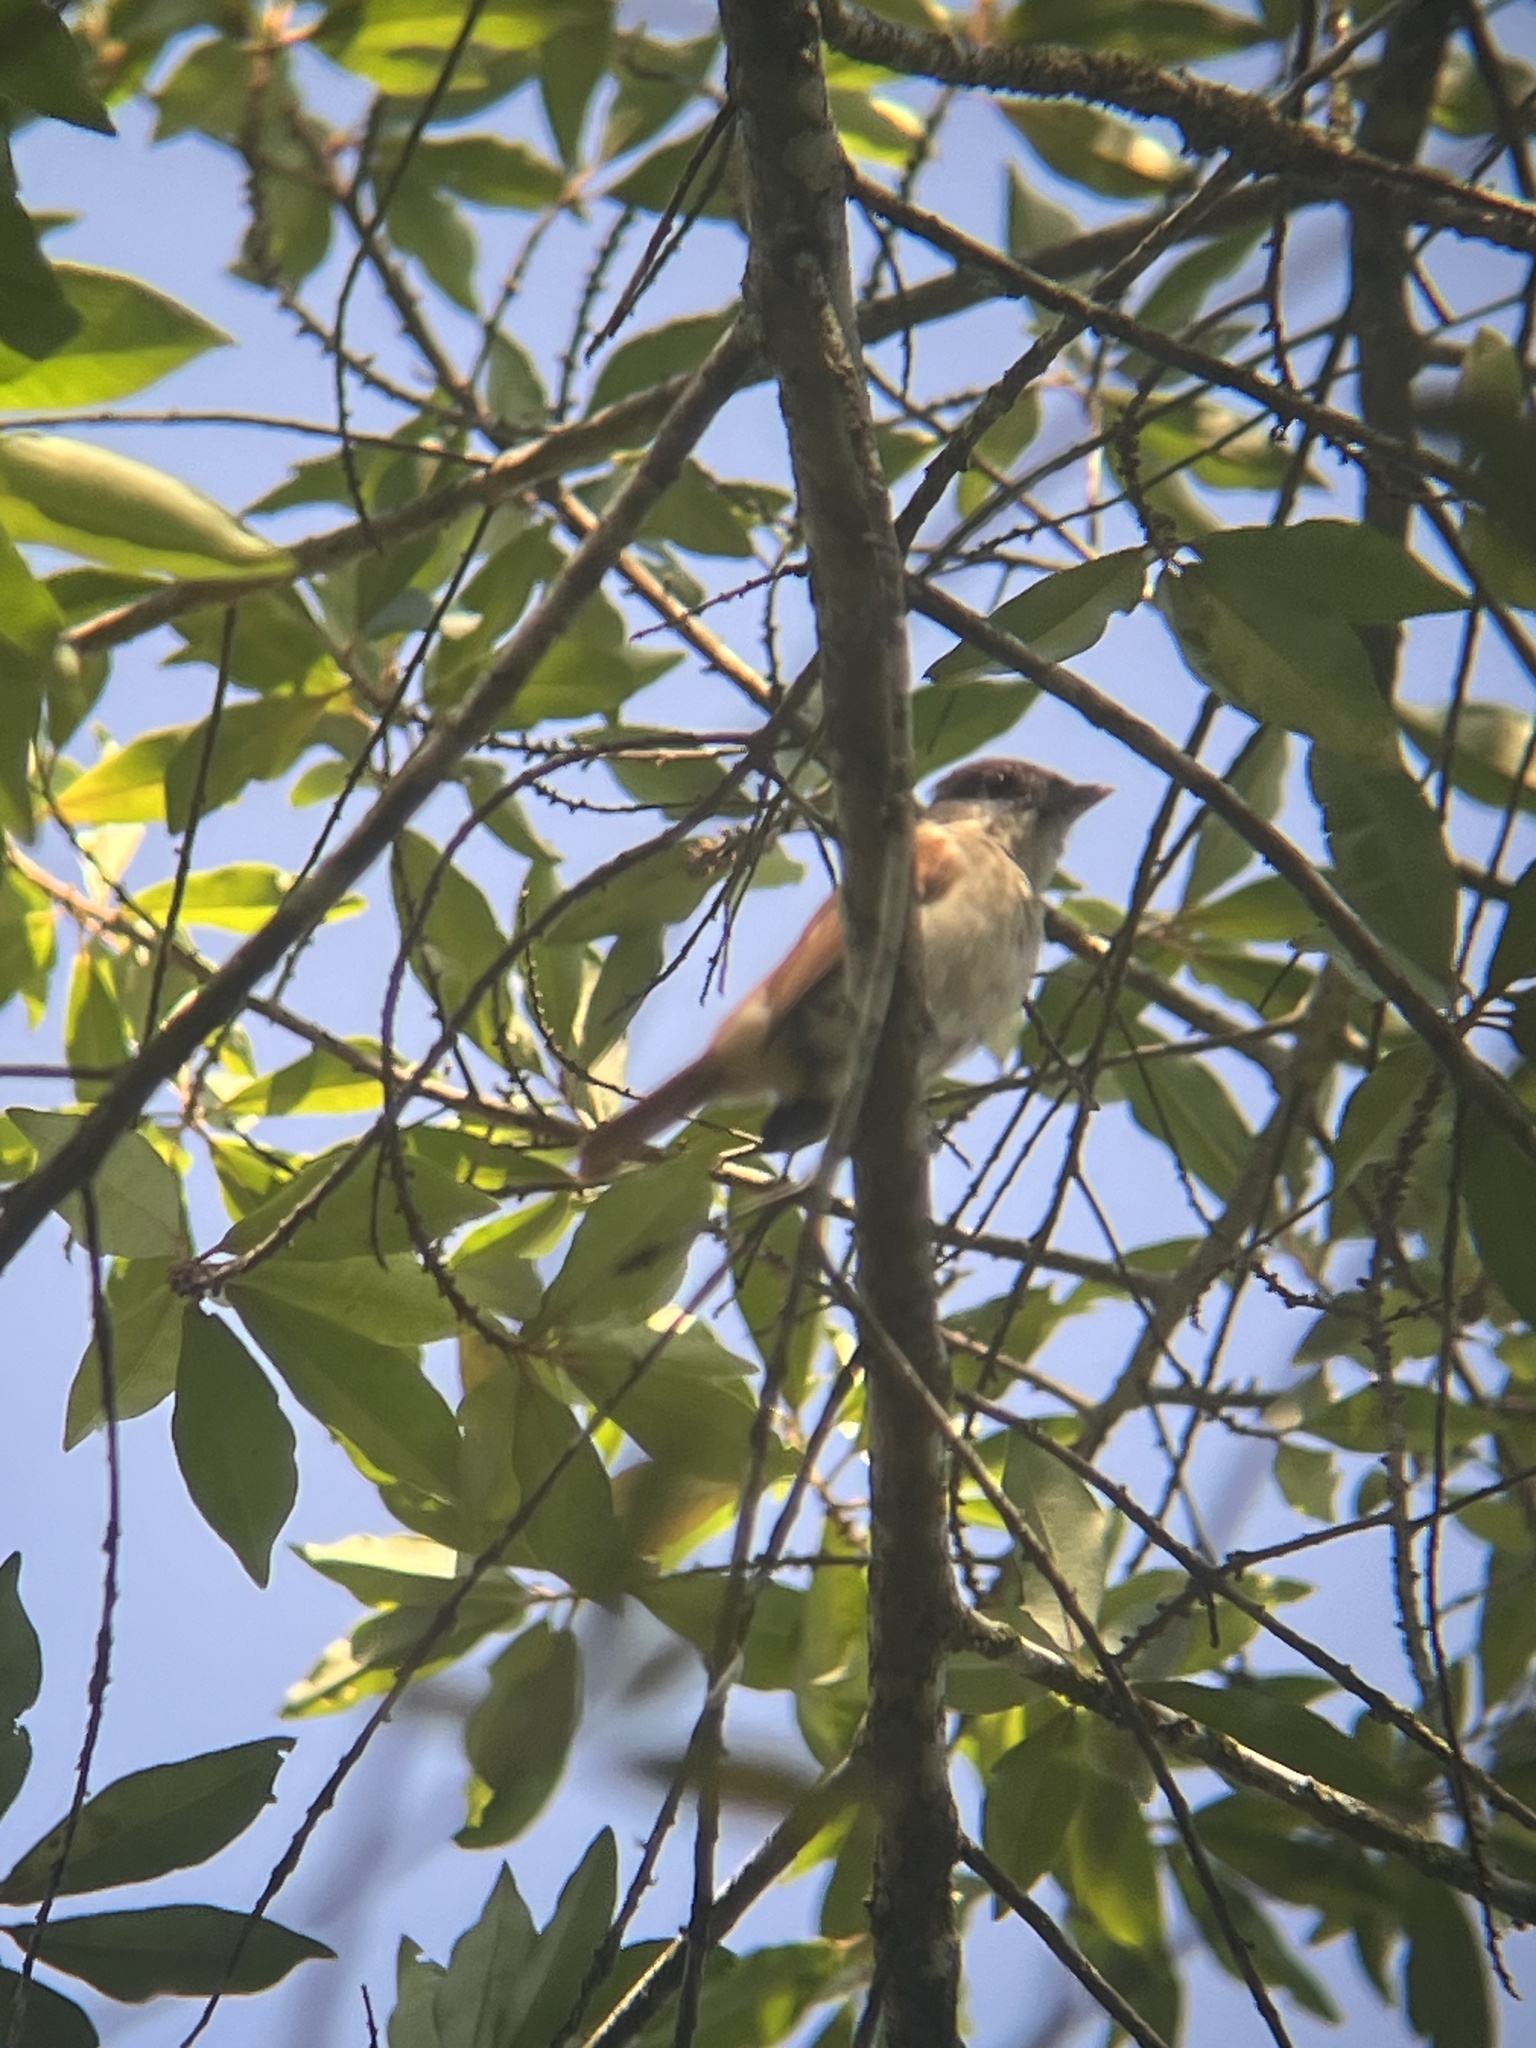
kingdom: Animalia
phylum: Chordata
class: Aves
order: Passeriformes
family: Cotingidae
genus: Pachyramphus
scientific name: Pachyramphus aglaiae
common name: Rose-throated becard
